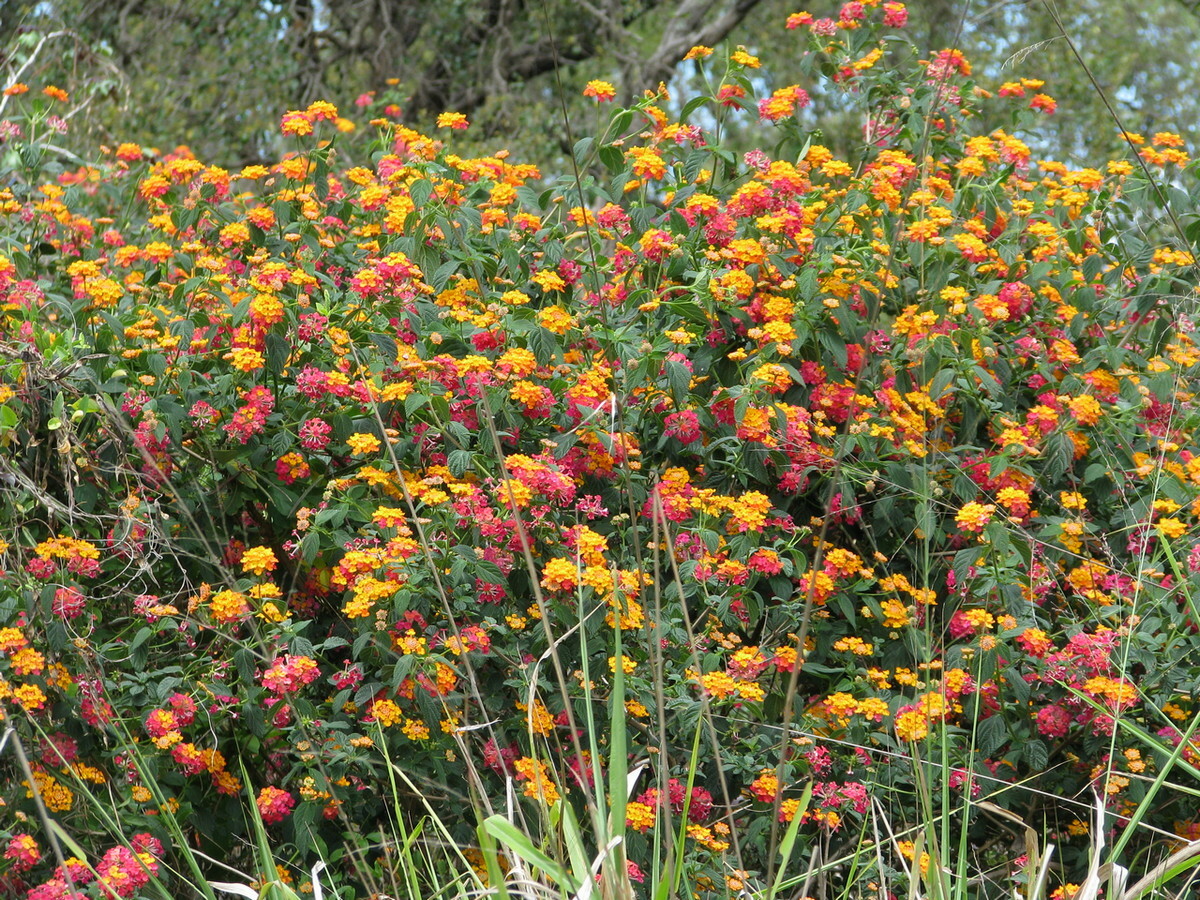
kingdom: Plantae
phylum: Tracheophyta
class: Magnoliopsida
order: Lamiales
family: Verbenaceae
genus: Lantana
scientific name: Lantana camara
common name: Lantana
